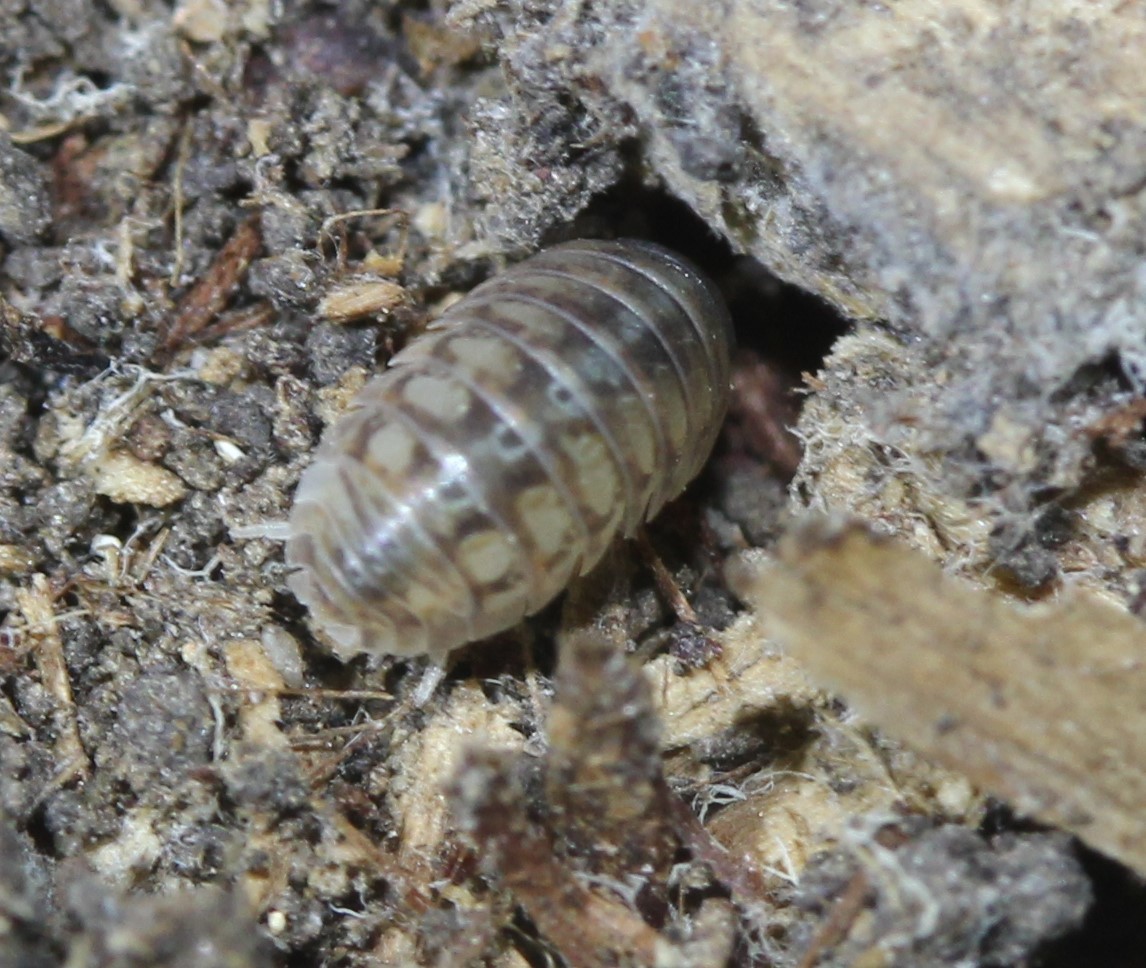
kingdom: Animalia
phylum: Arthropoda
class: Malacostraca
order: Isopoda
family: Armadillidiidae
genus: Armadillidium
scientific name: Armadillidium vulgare
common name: Common pill woodlouse
